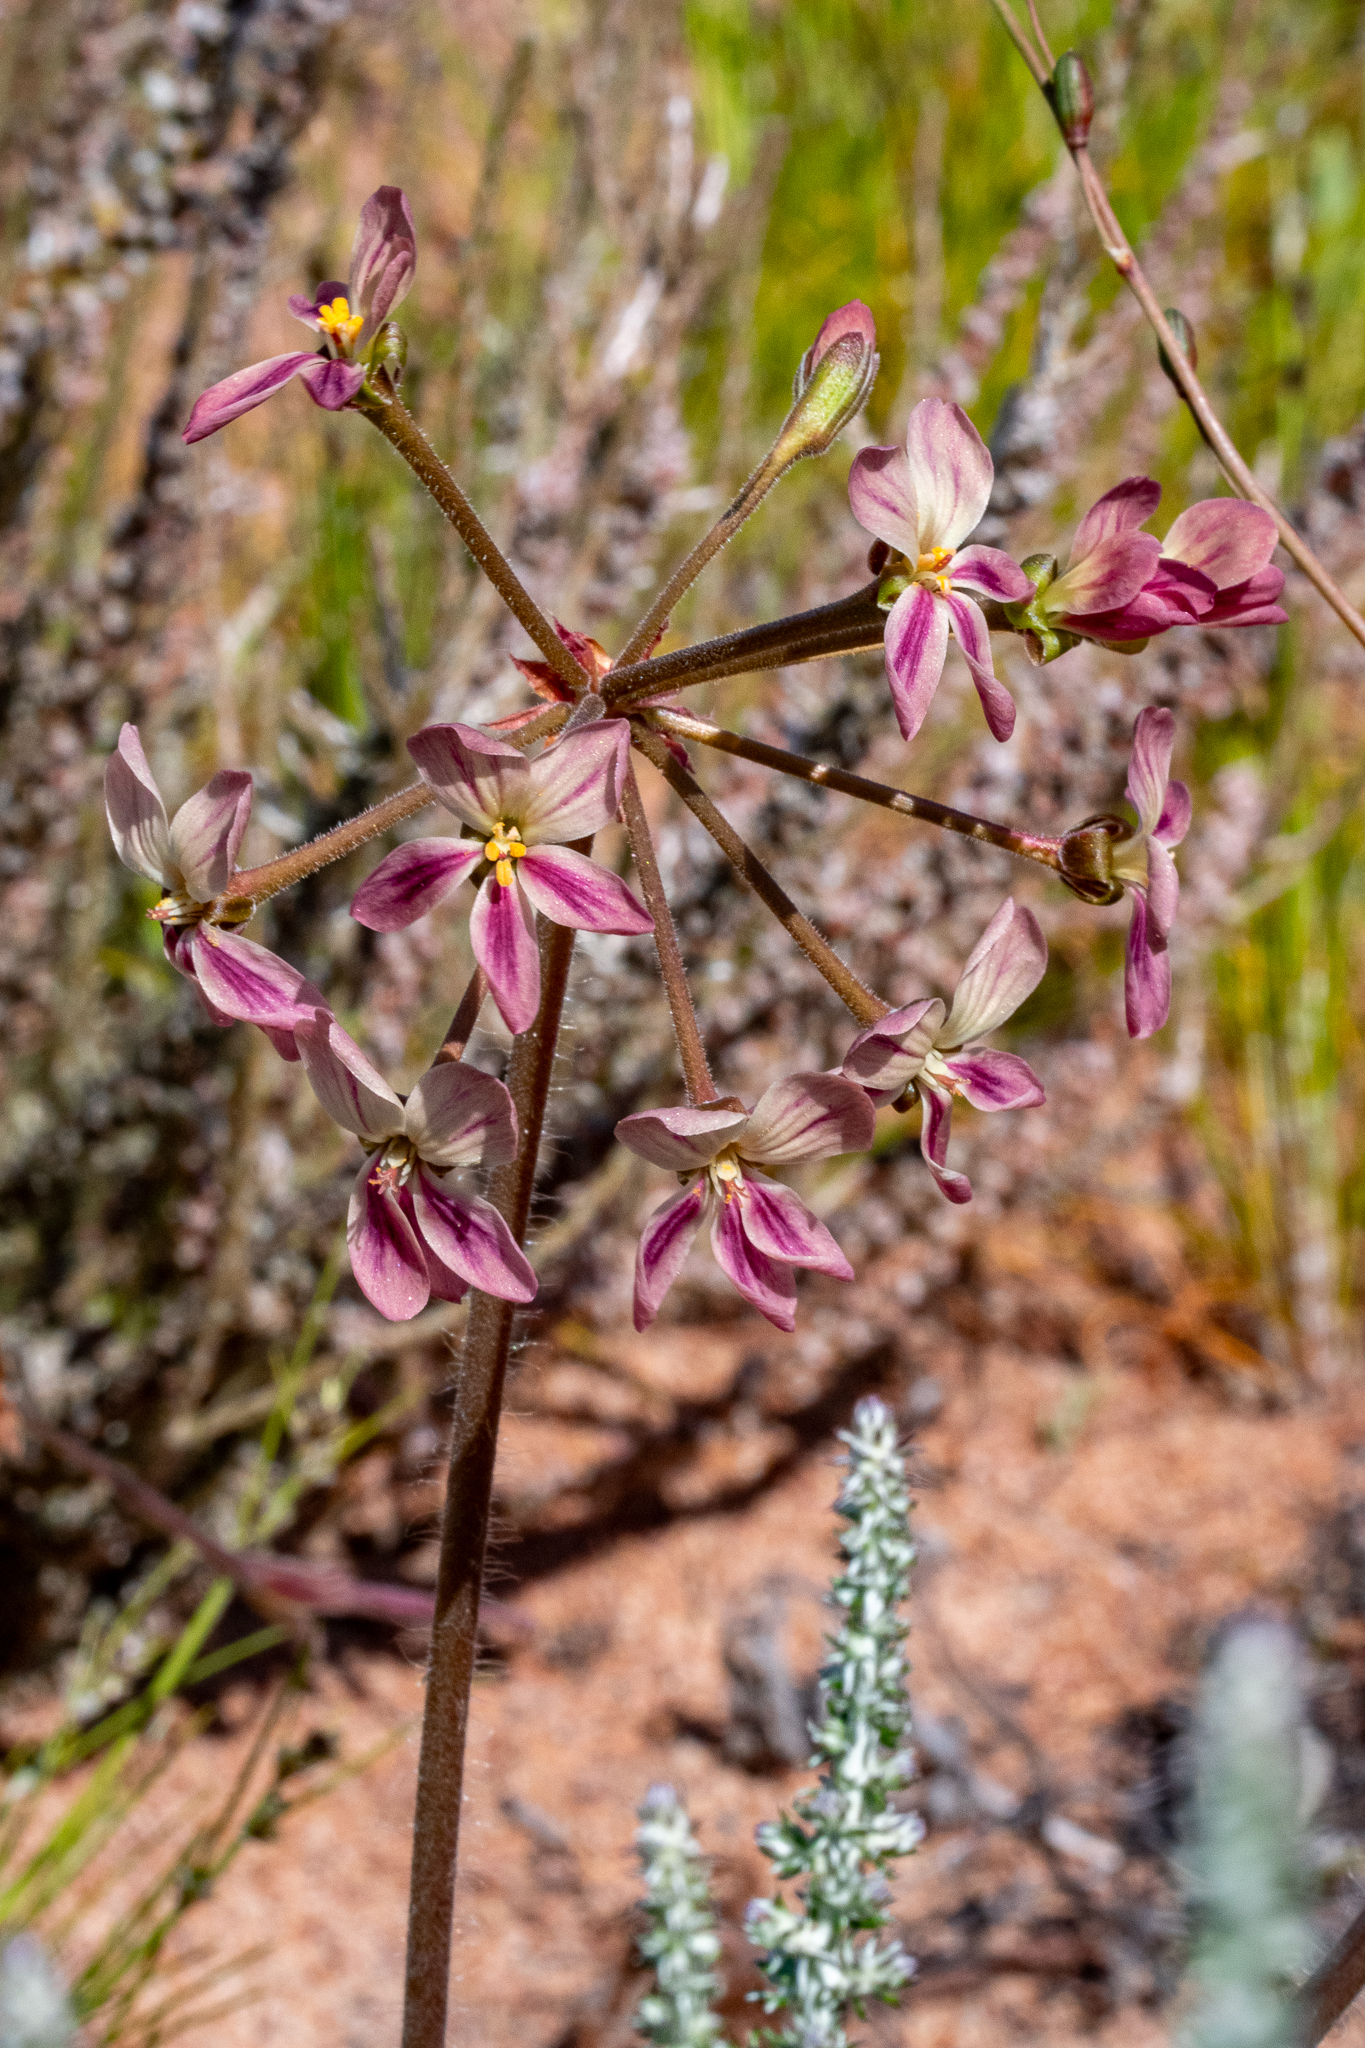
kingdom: Plantae
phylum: Tracheophyta
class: Magnoliopsida
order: Geraniales
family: Geraniaceae
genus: Pelargonium
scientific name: Pelargonium triste
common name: Night-scent pelargonium
